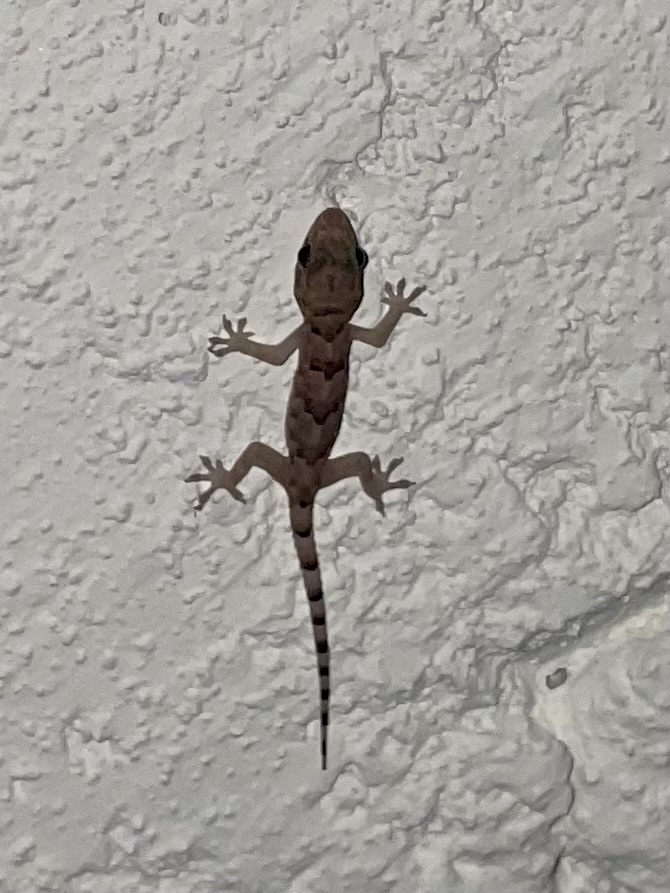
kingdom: Animalia
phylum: Chordata
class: Squamata
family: Gekkonidae
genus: Hemidactylus
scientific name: Hemidactylus mabouia
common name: House gecko
